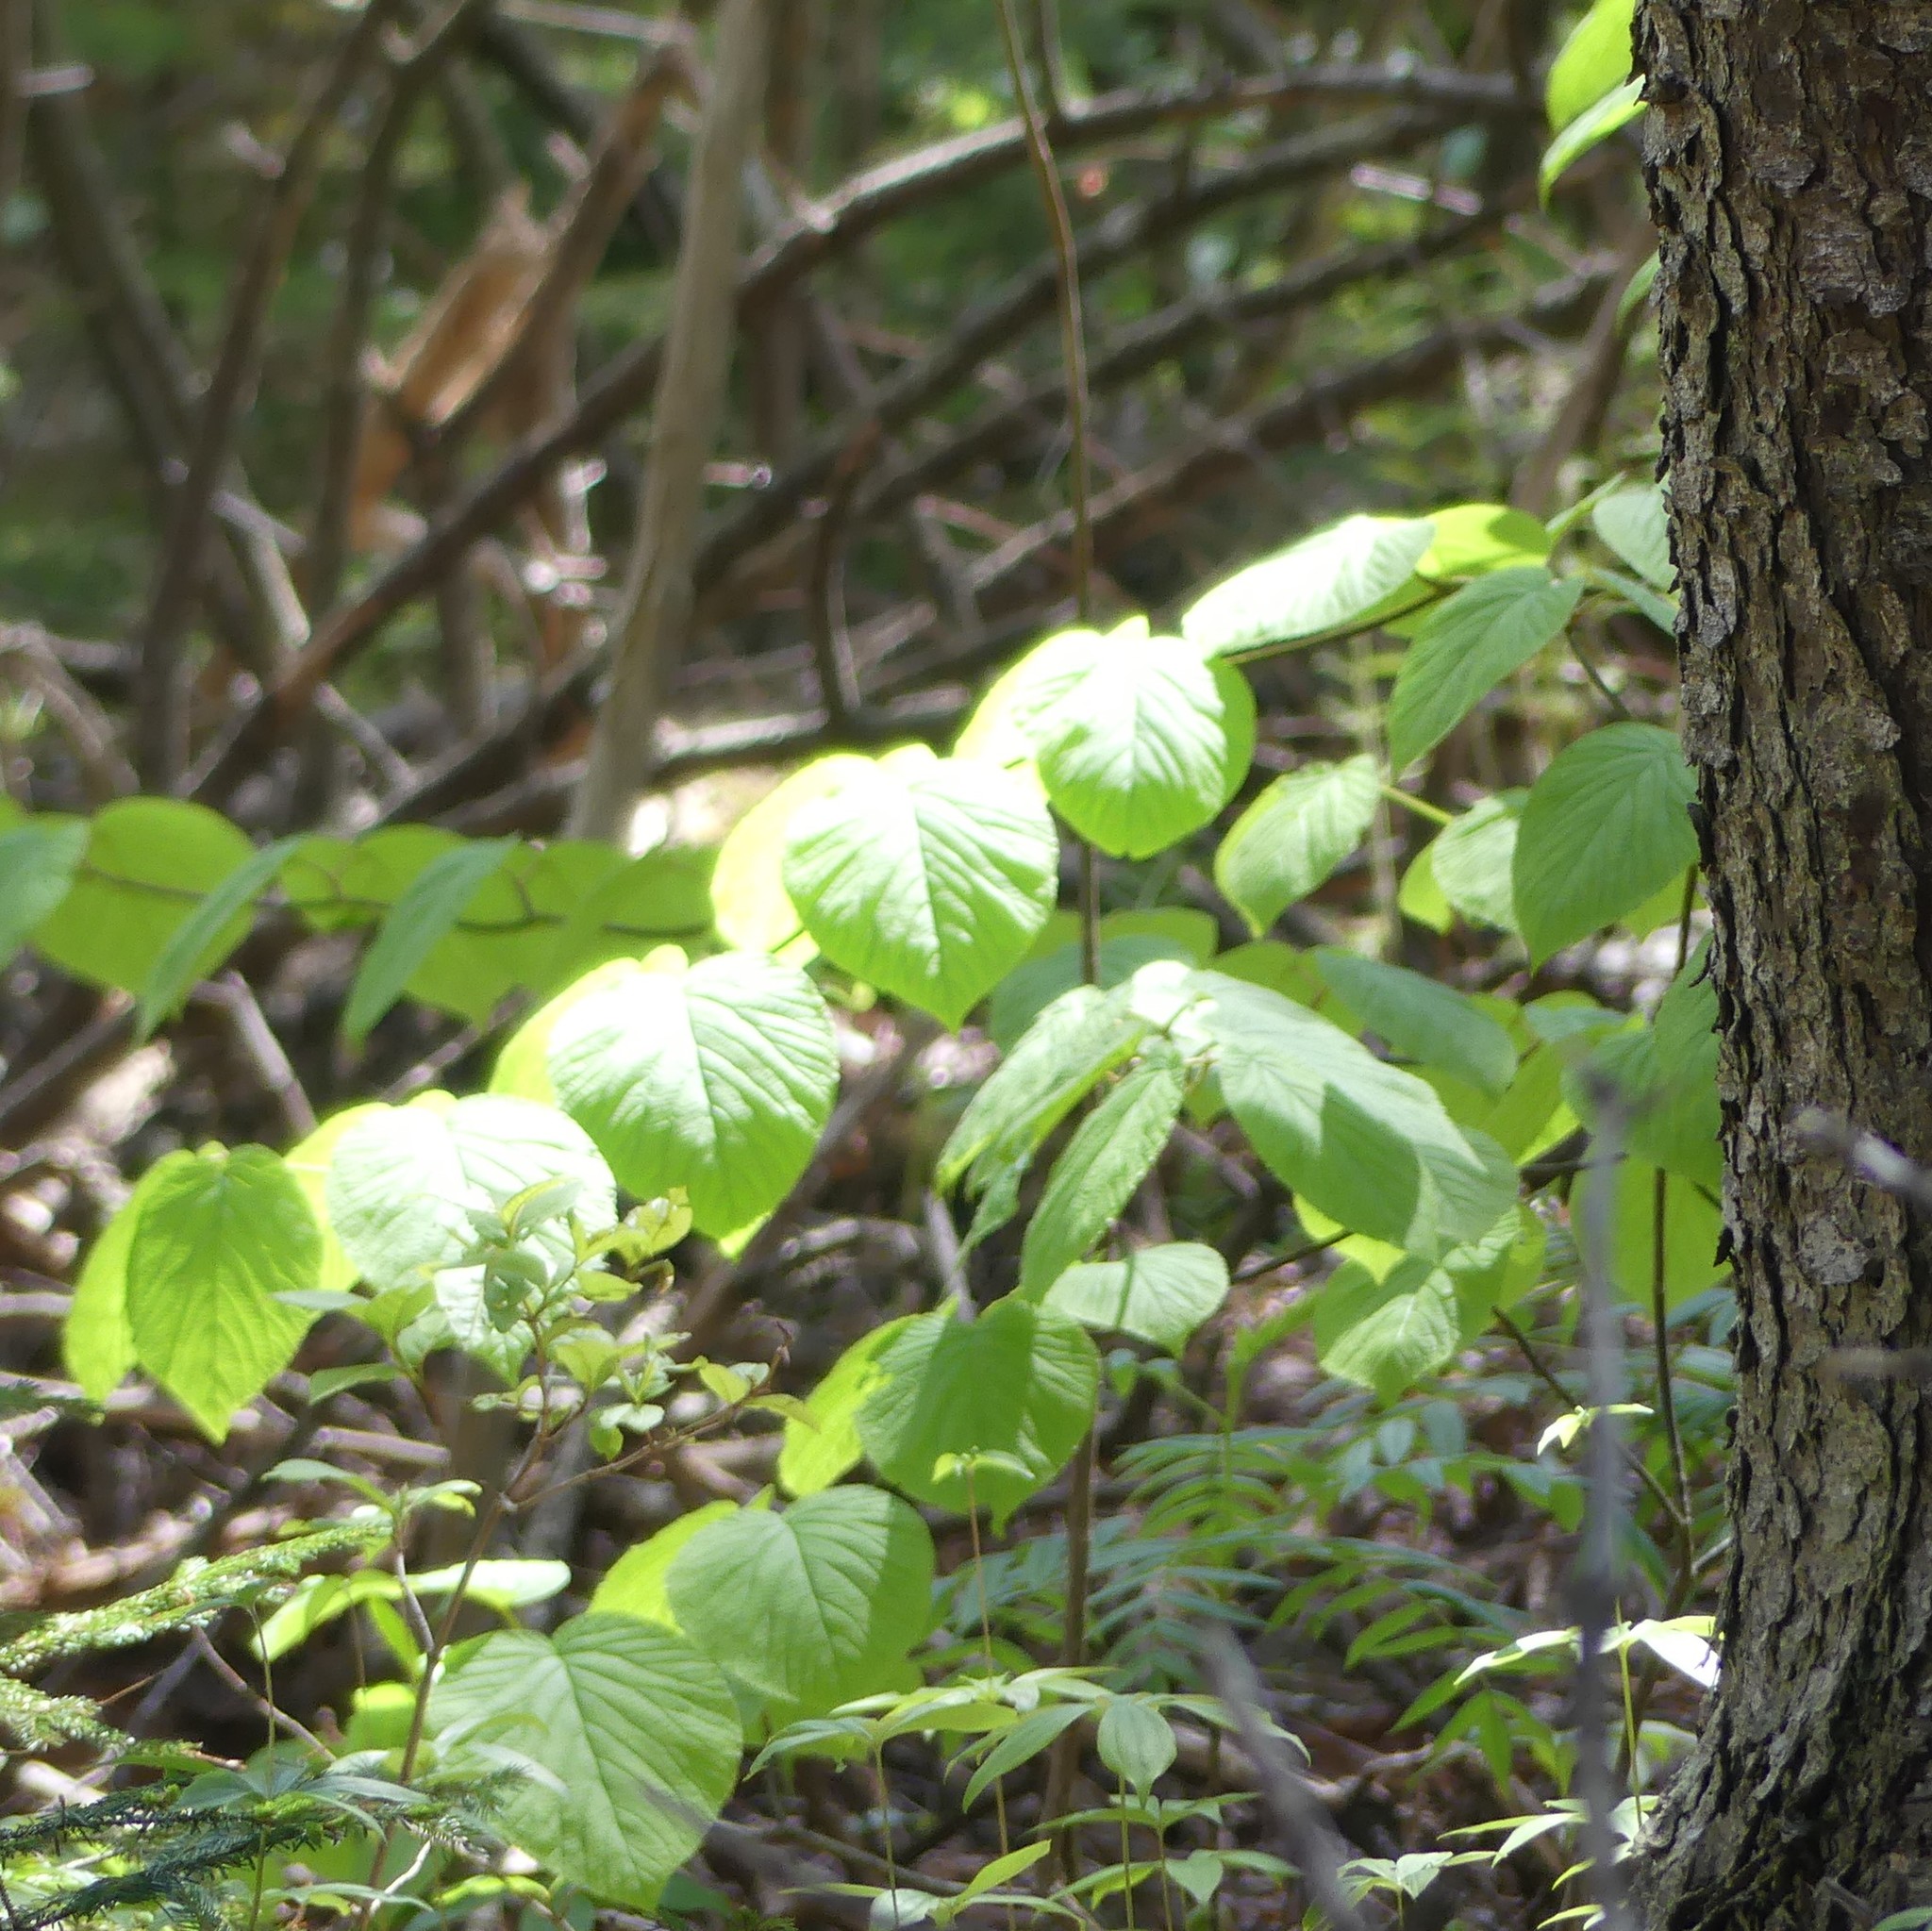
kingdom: Plantae
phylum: Tracheophyta
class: Magnoliopsida
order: Dipsacales
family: Viburnaceae
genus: Viburnum
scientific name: Viburnum lantanoides
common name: Hobblebush
